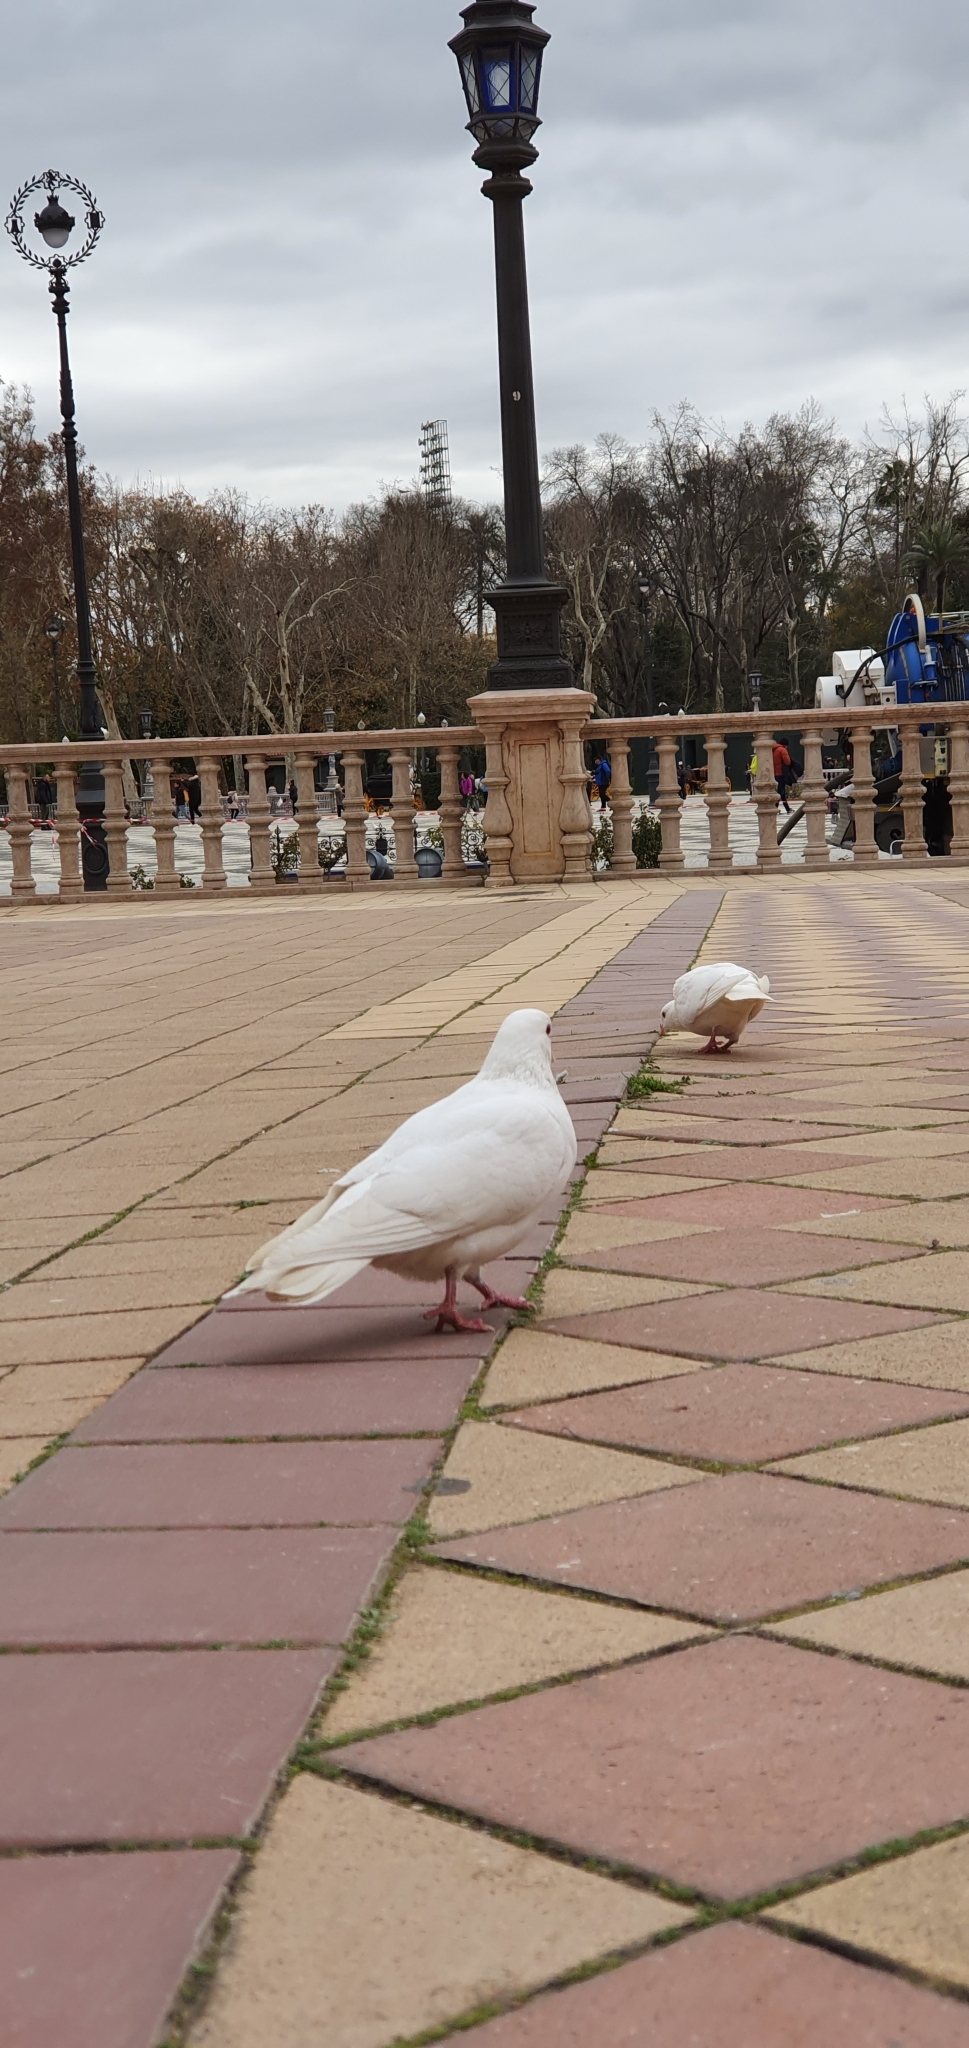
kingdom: Animalia
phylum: Chordata
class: Aves
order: Columbiformes
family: Columbidae
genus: Columba
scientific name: Columba livia
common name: Rock pigeon
